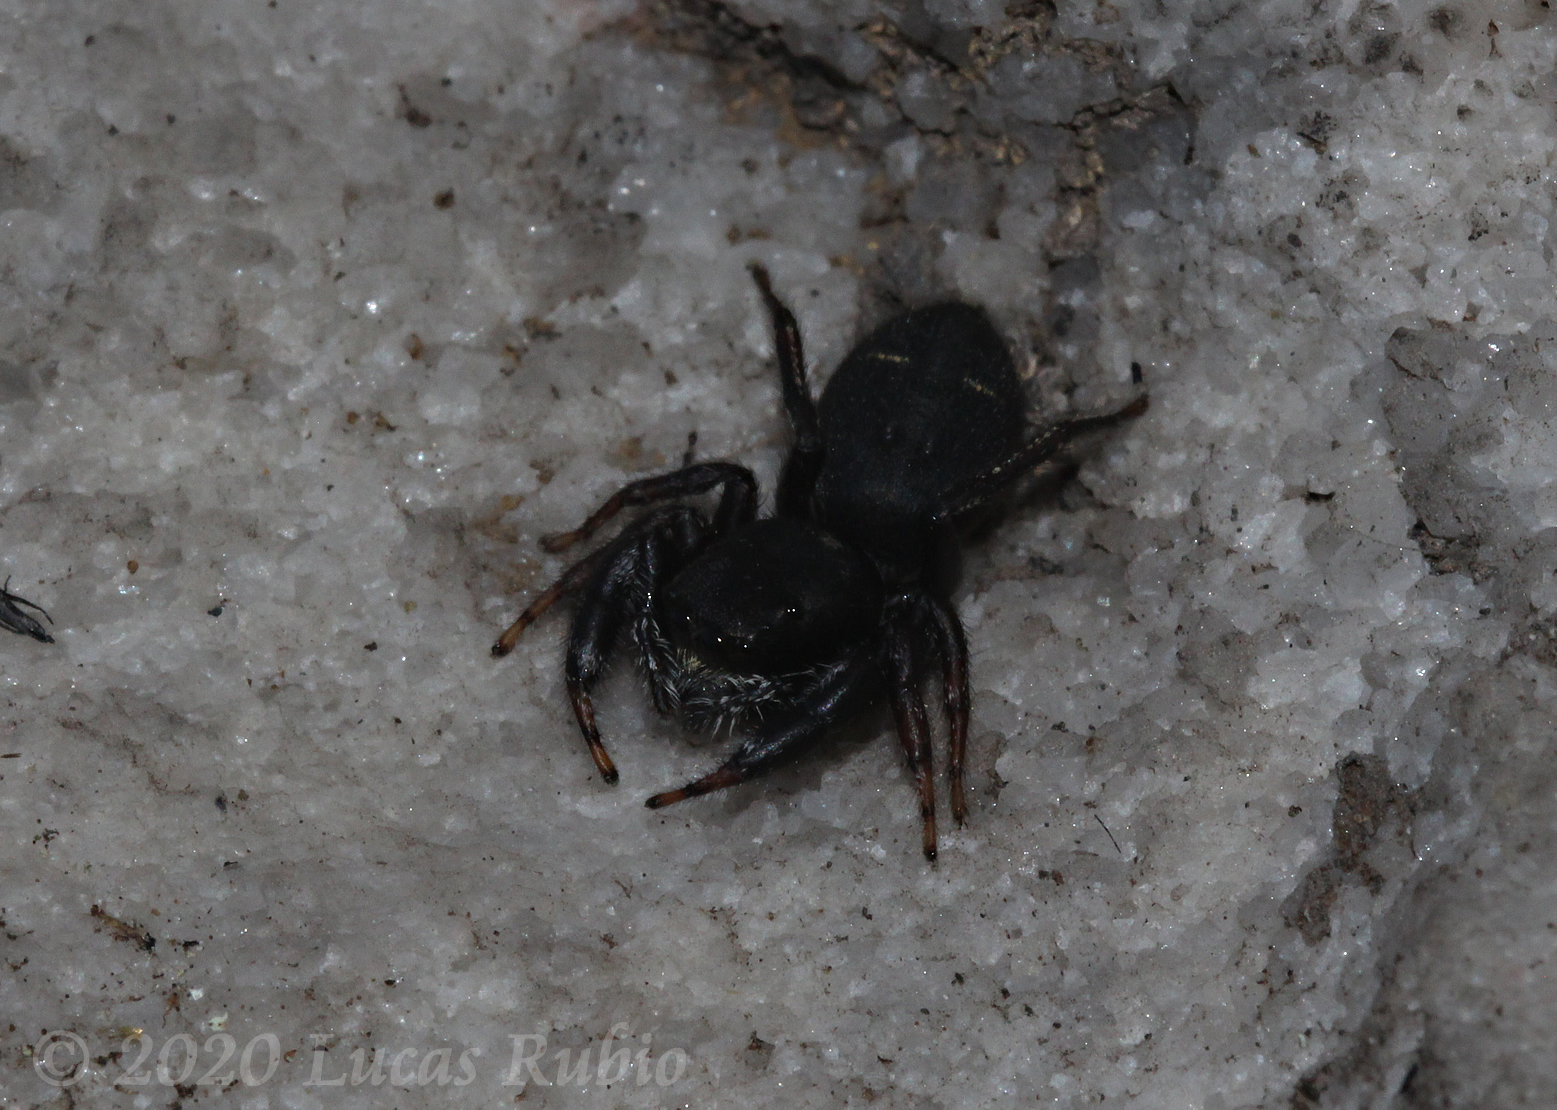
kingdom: Animalia
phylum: Arthropoda
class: Arachnida
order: Araneae
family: Salticidae
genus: Breda
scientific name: Breda tristis
